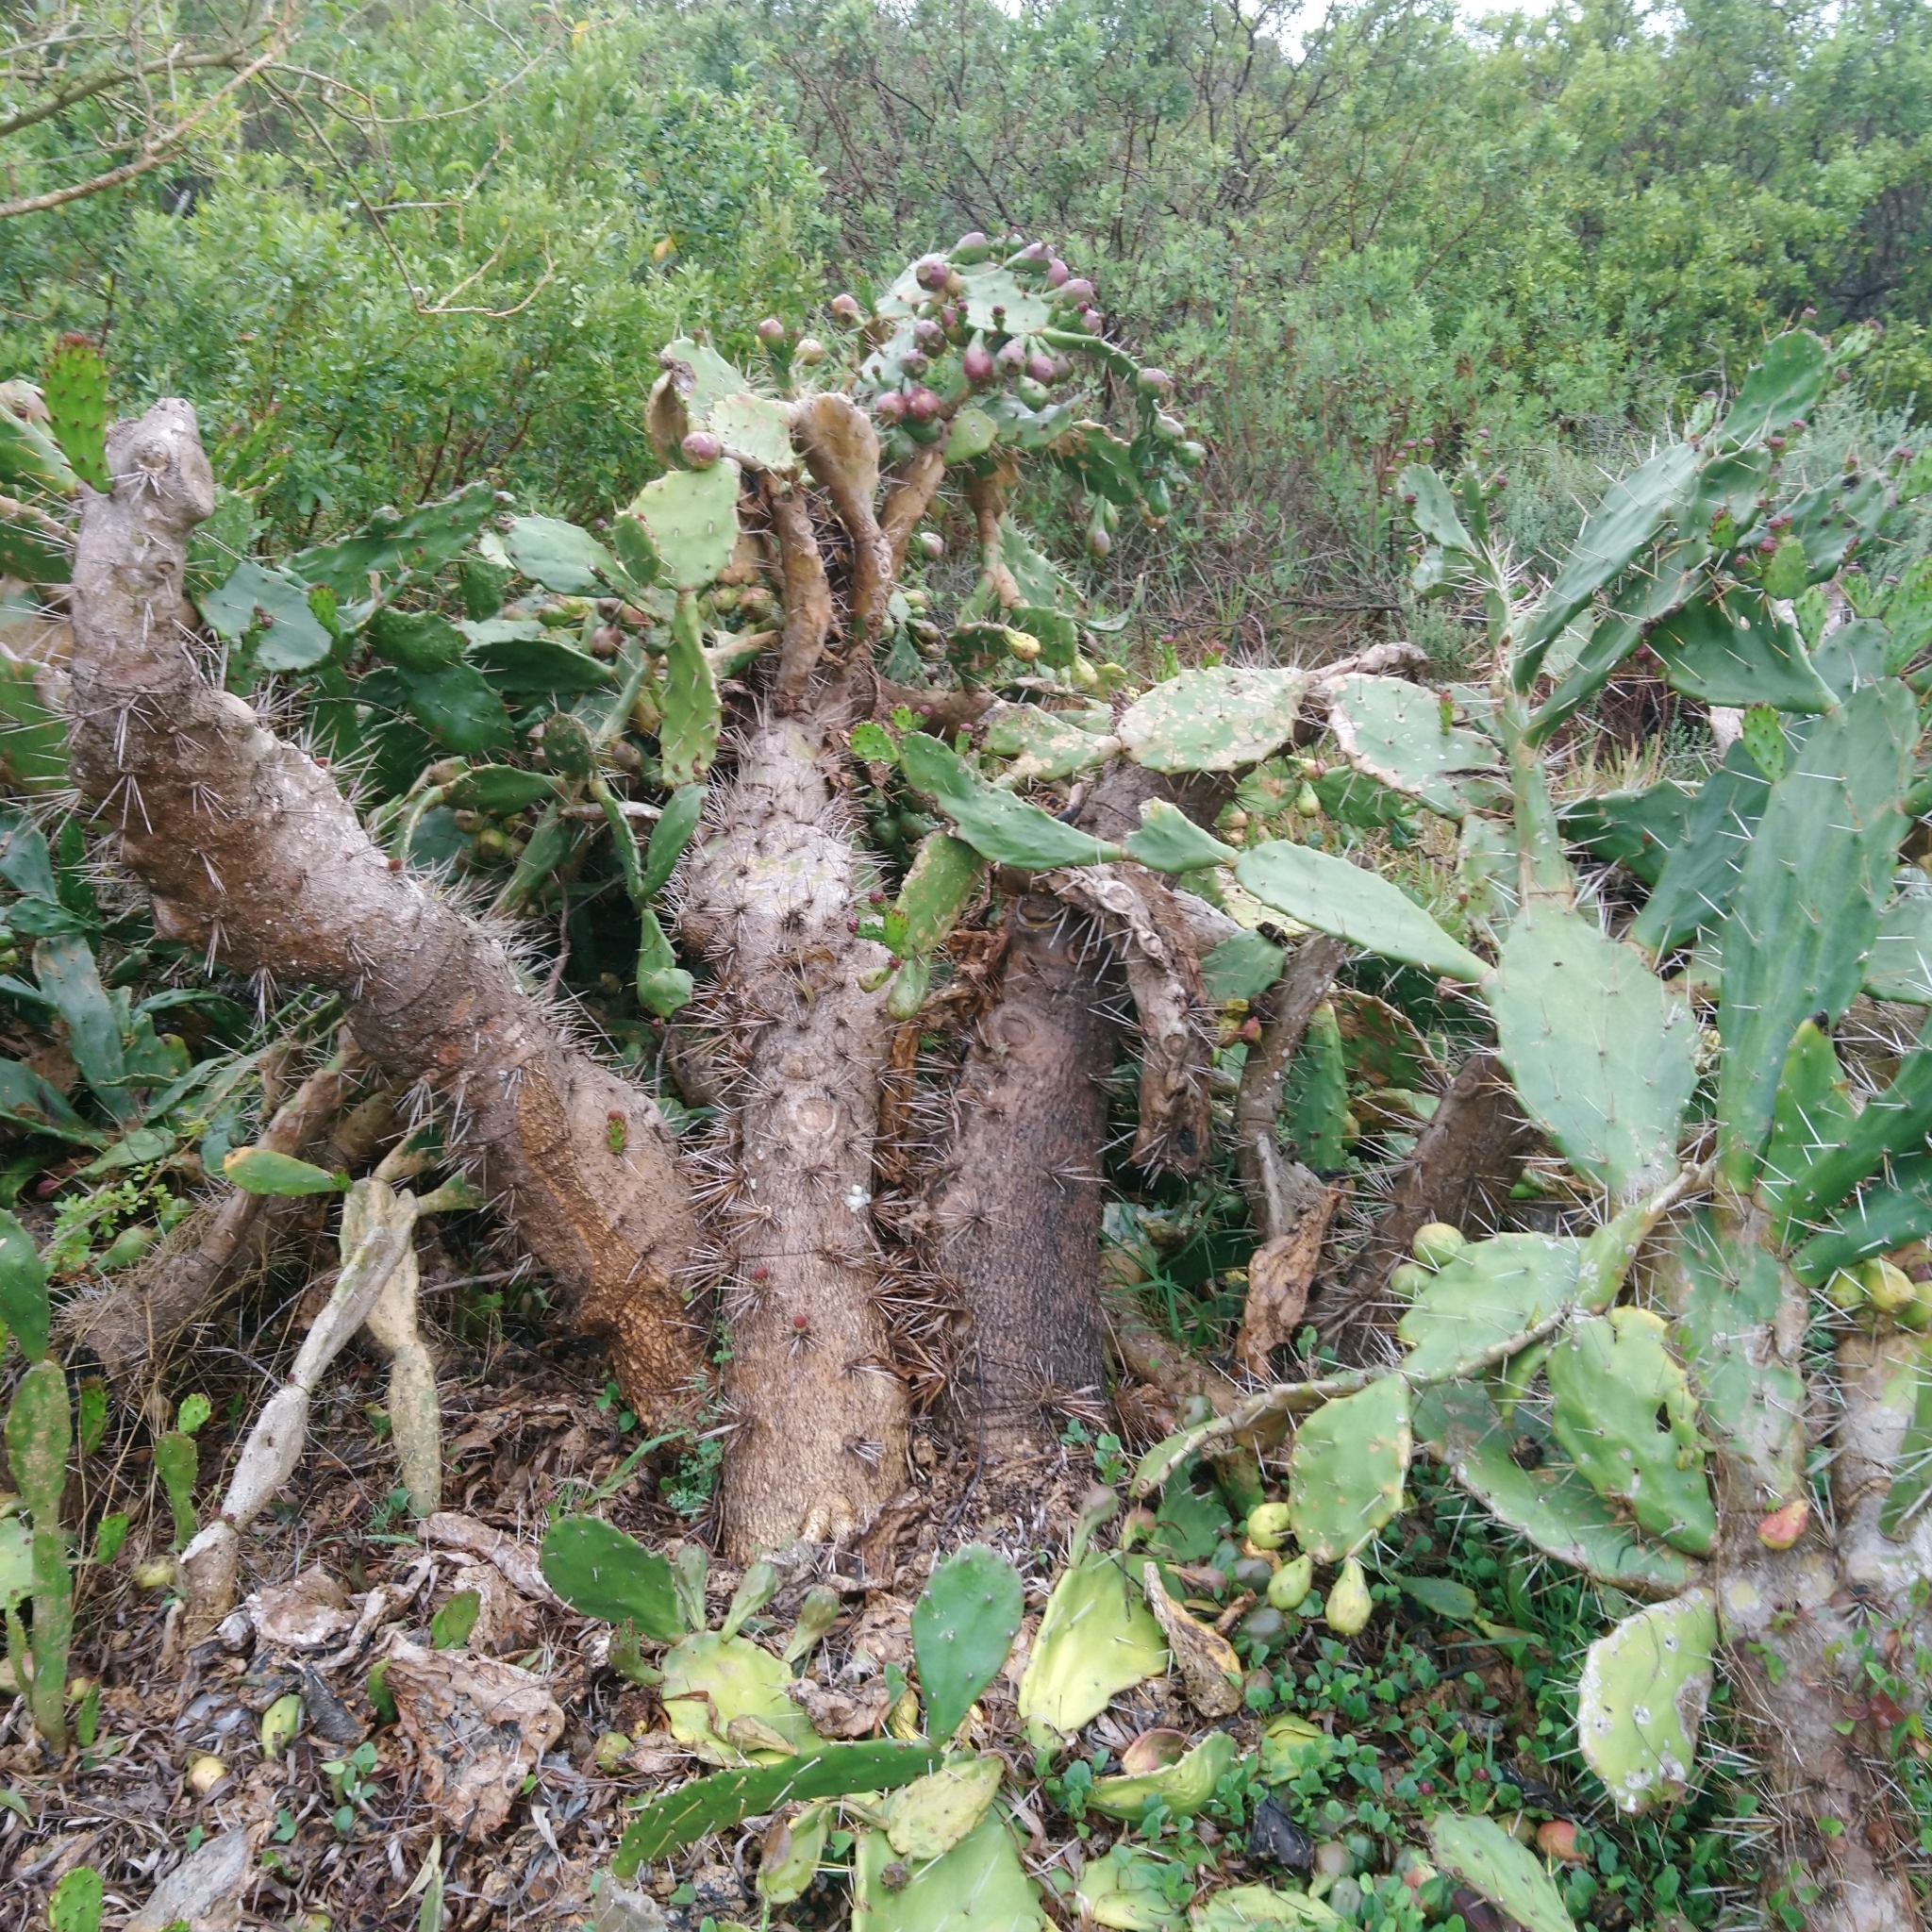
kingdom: Plantae
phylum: Tracheophyta
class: Magnoliopsida
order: Caryophyllales
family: Cactaceae
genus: Opuntia
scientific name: Opuntia monacantha
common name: Common pricklypear
